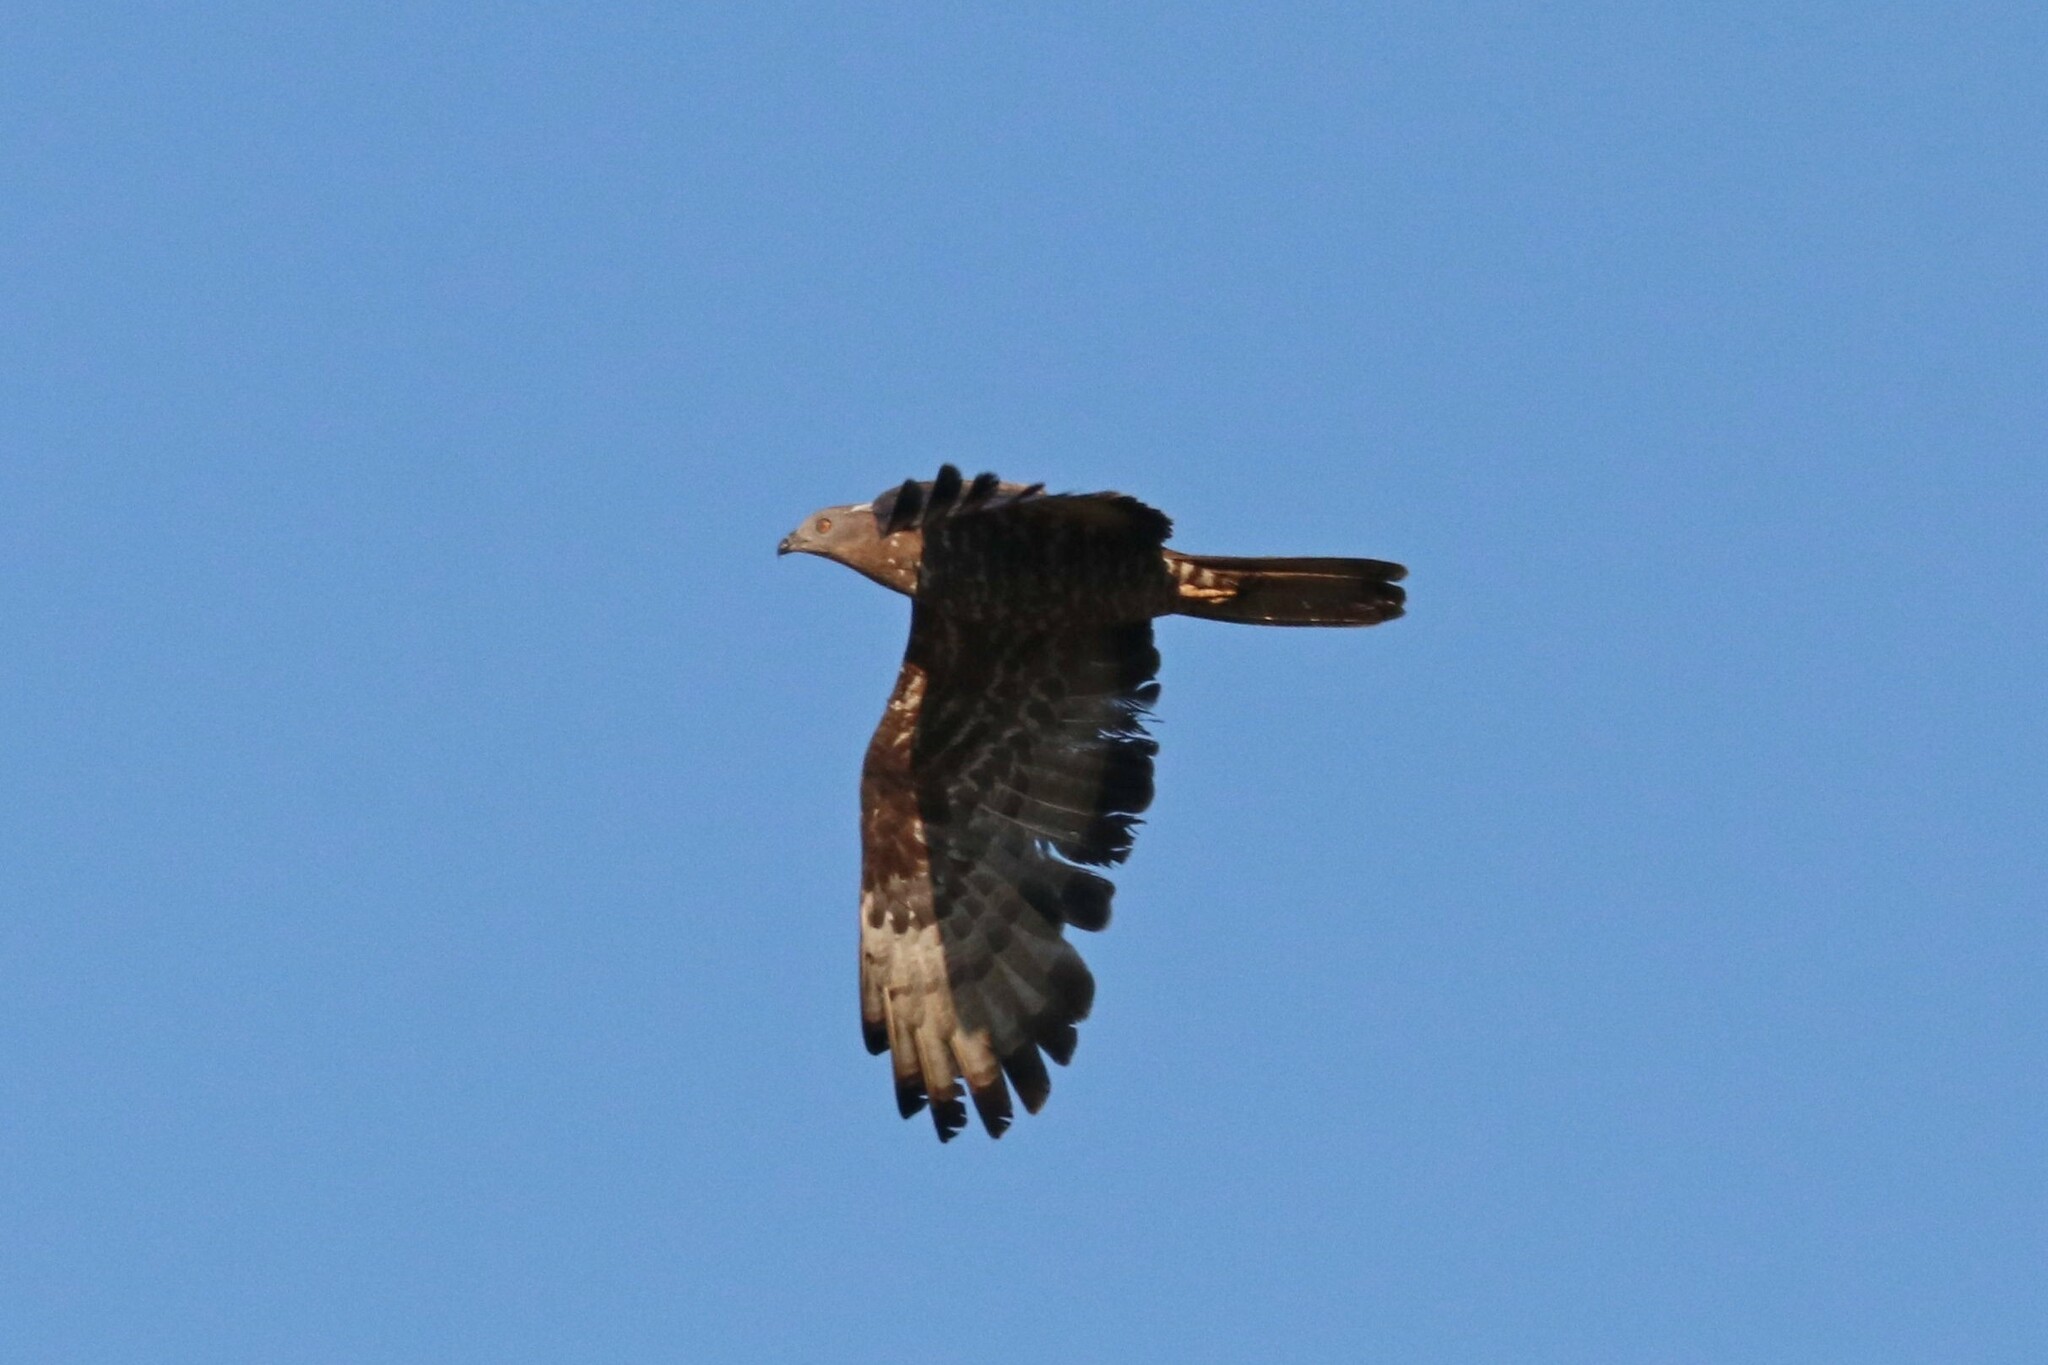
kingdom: Animalia
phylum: Chordata
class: Aves
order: Accipitriformes
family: Accipitridae
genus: Pernis
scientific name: Pernis apivorus
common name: European honey buzzard
